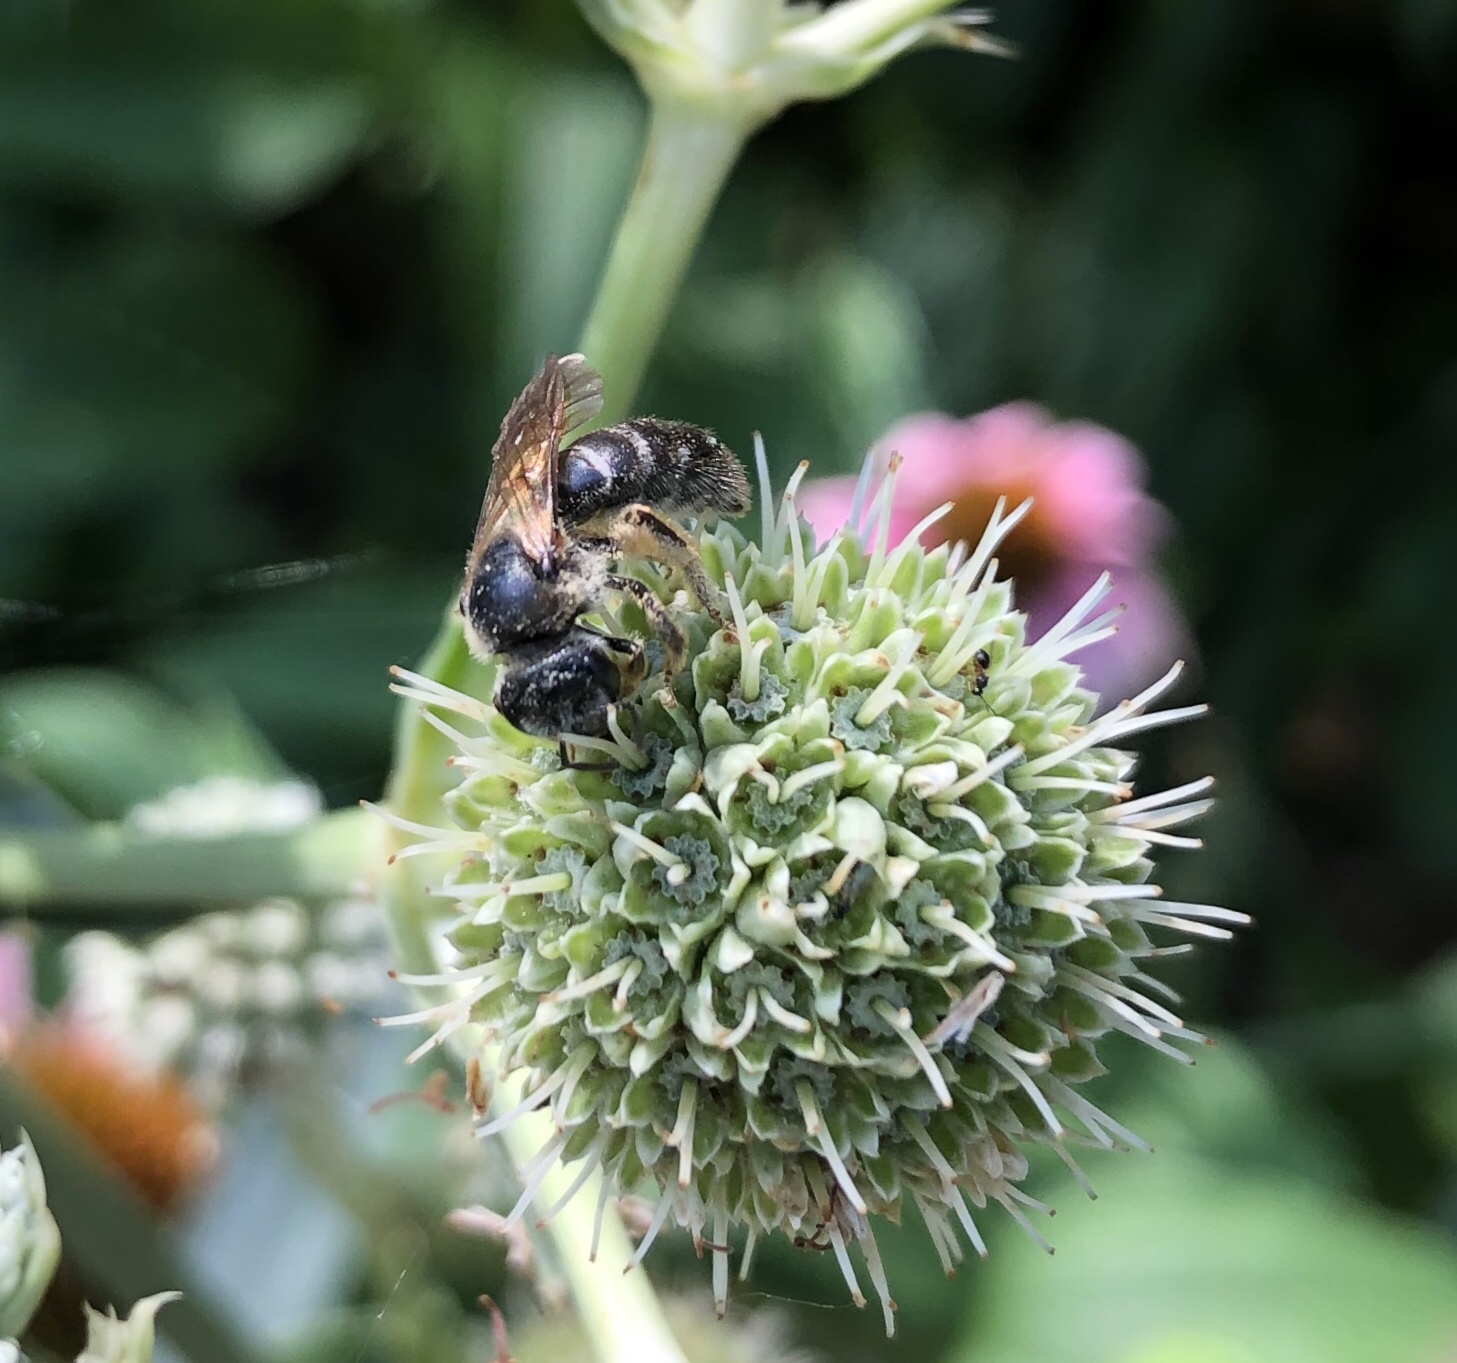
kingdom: Animalia
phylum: Arthropoda
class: Insecta
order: Hymenoptera
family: Halictidae
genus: Halictus
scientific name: Halictus rubicundus
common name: Orange-legged furrow bee
